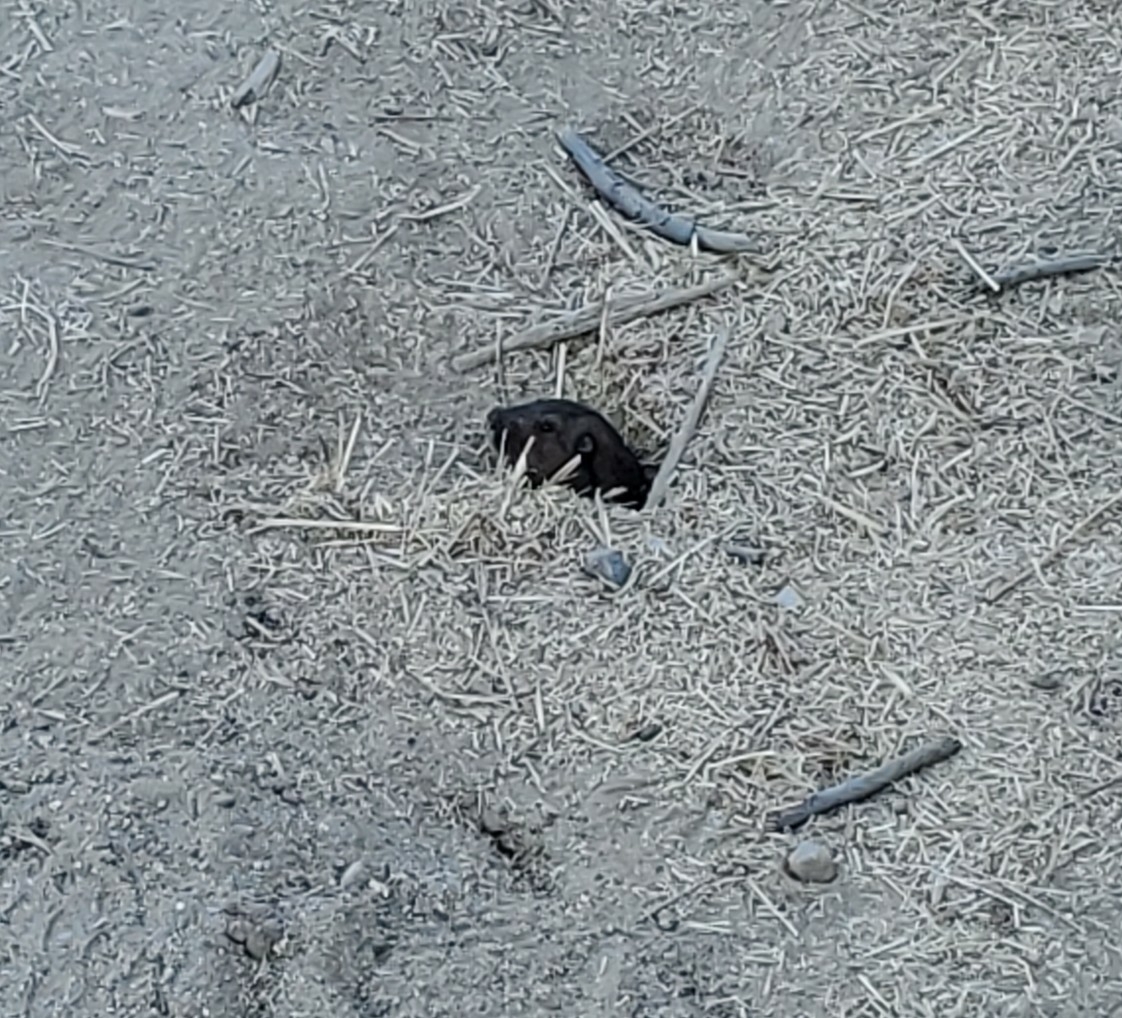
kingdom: Animalia
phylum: Chordata
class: Mammalia
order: Rodentia
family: Geomyidae
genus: Thomomys
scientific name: Thomomys bottae
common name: Botta's pocket gopher
